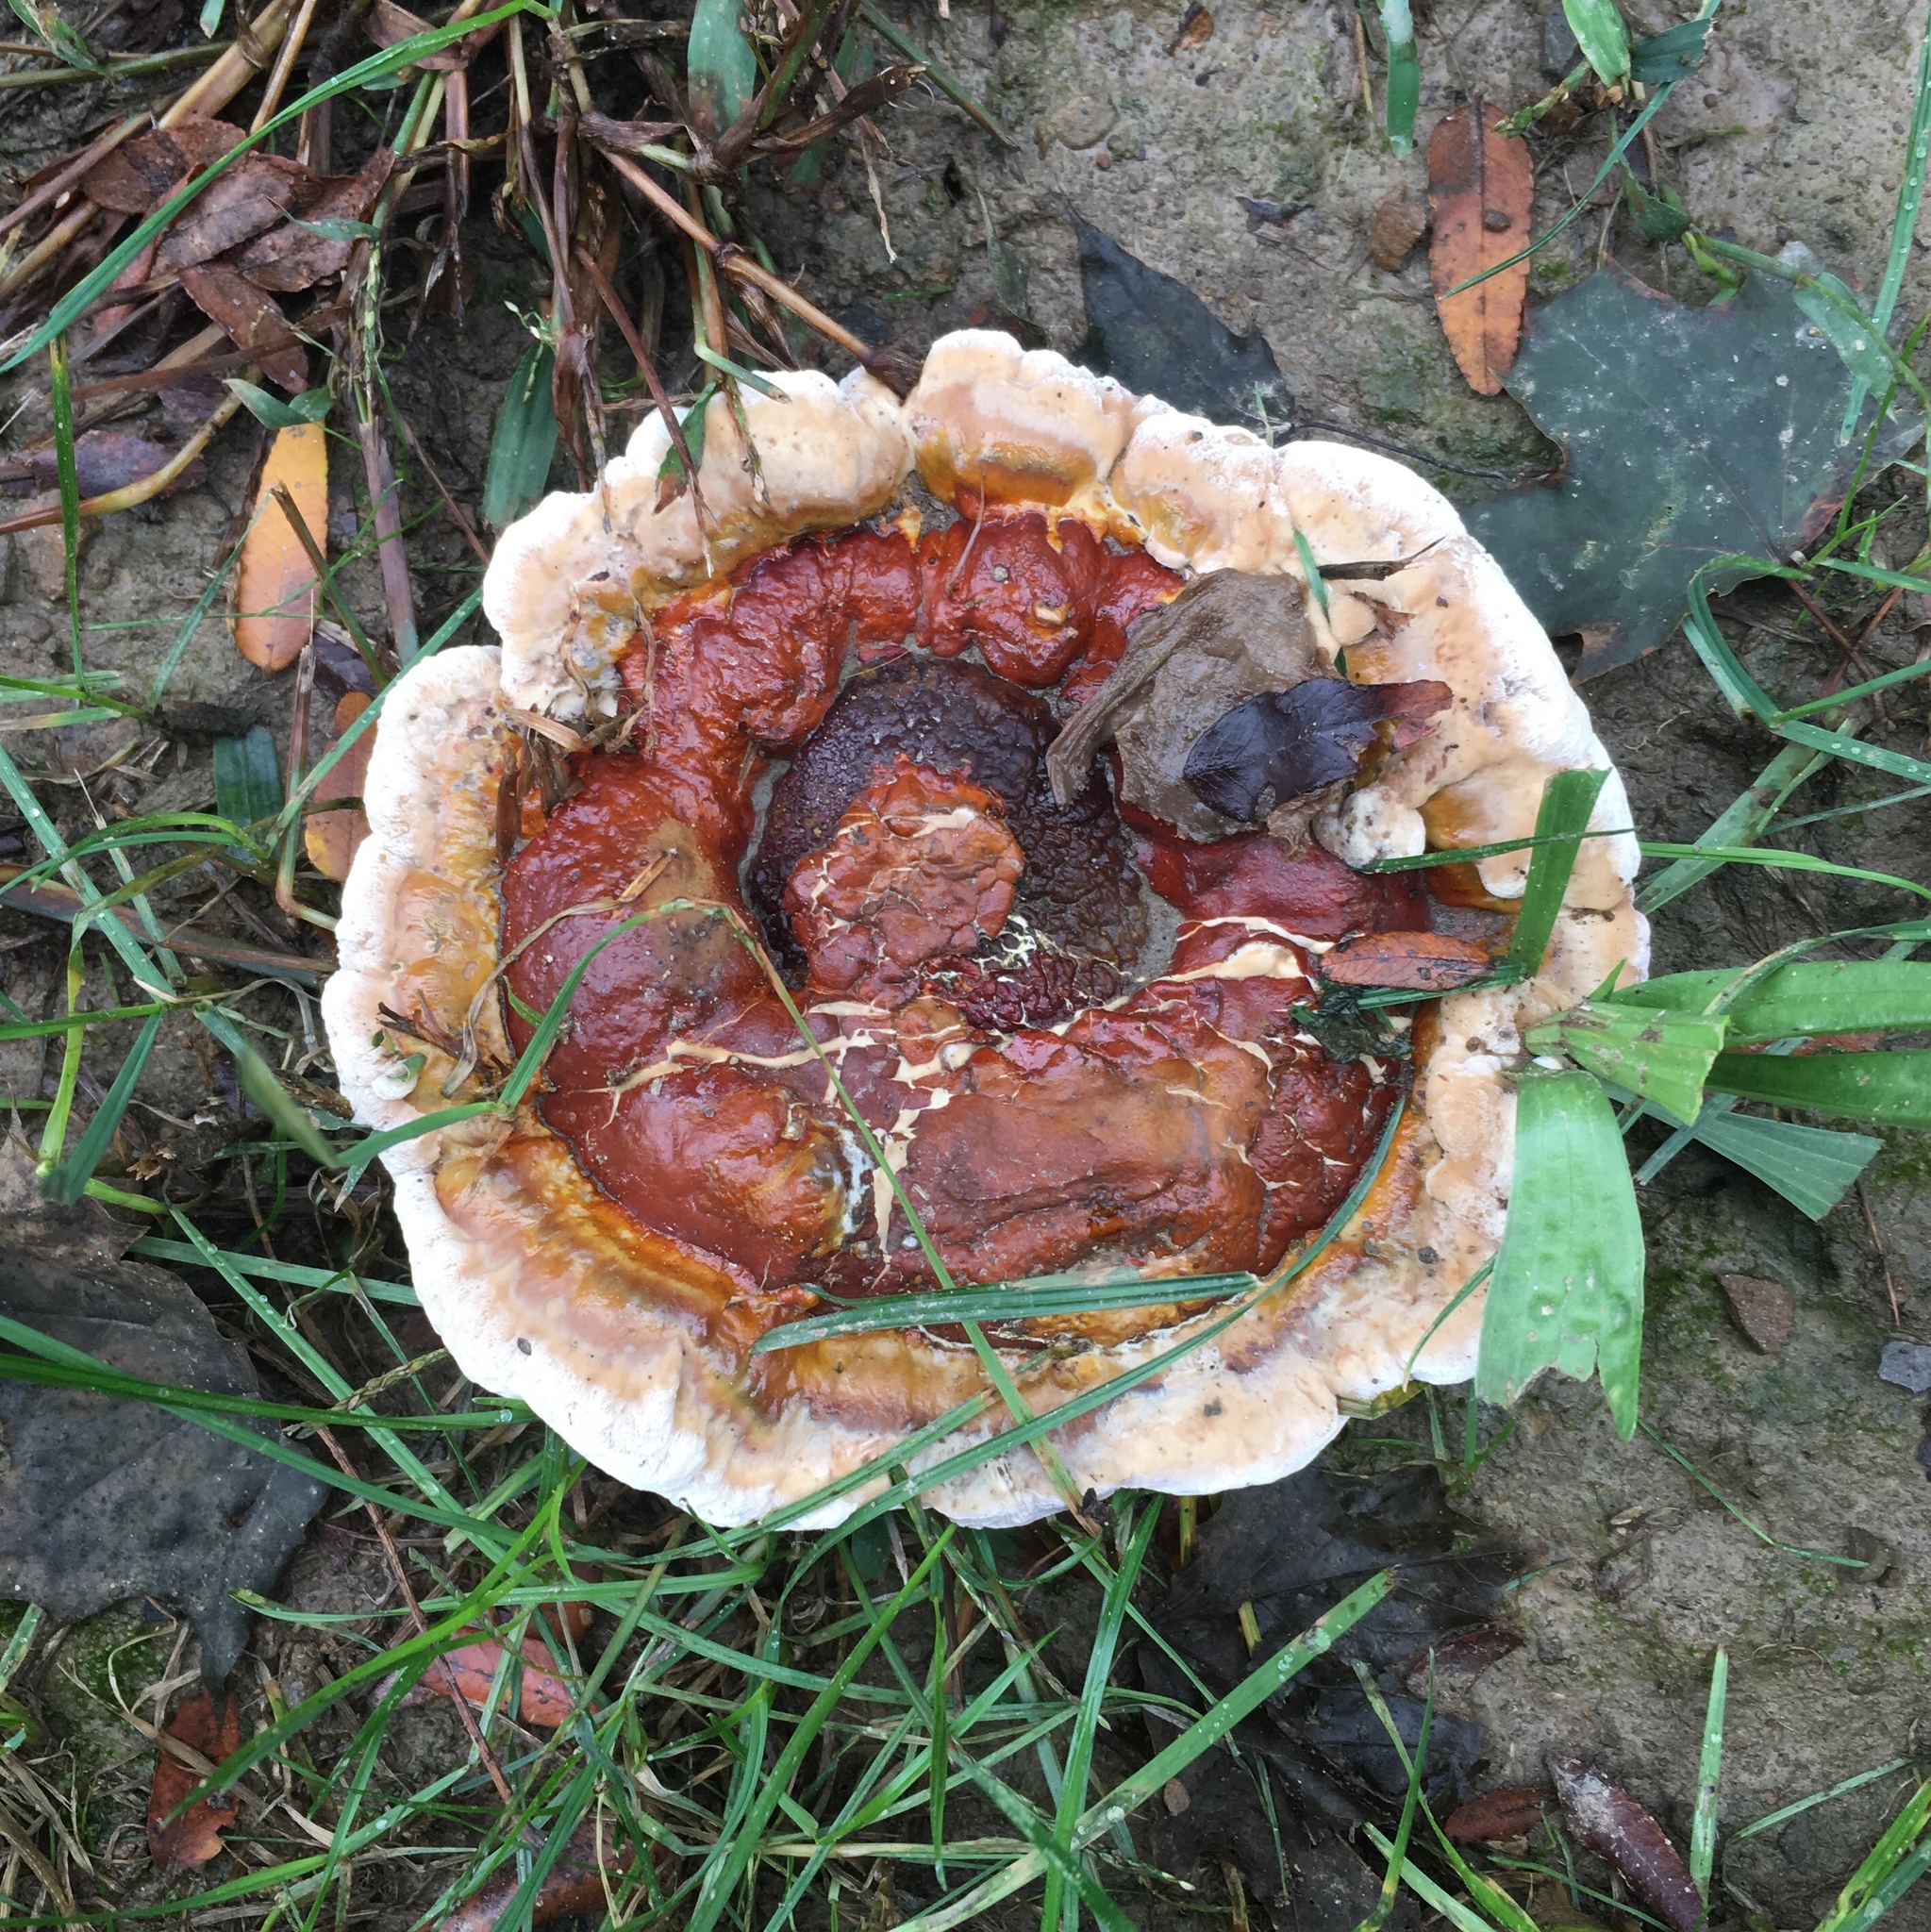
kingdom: Fungi
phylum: Basidiomycota
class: Agaricomycetes
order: Polyporales
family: Polyporaceae
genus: Ganoderma
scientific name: Ganoderma resinaceum
